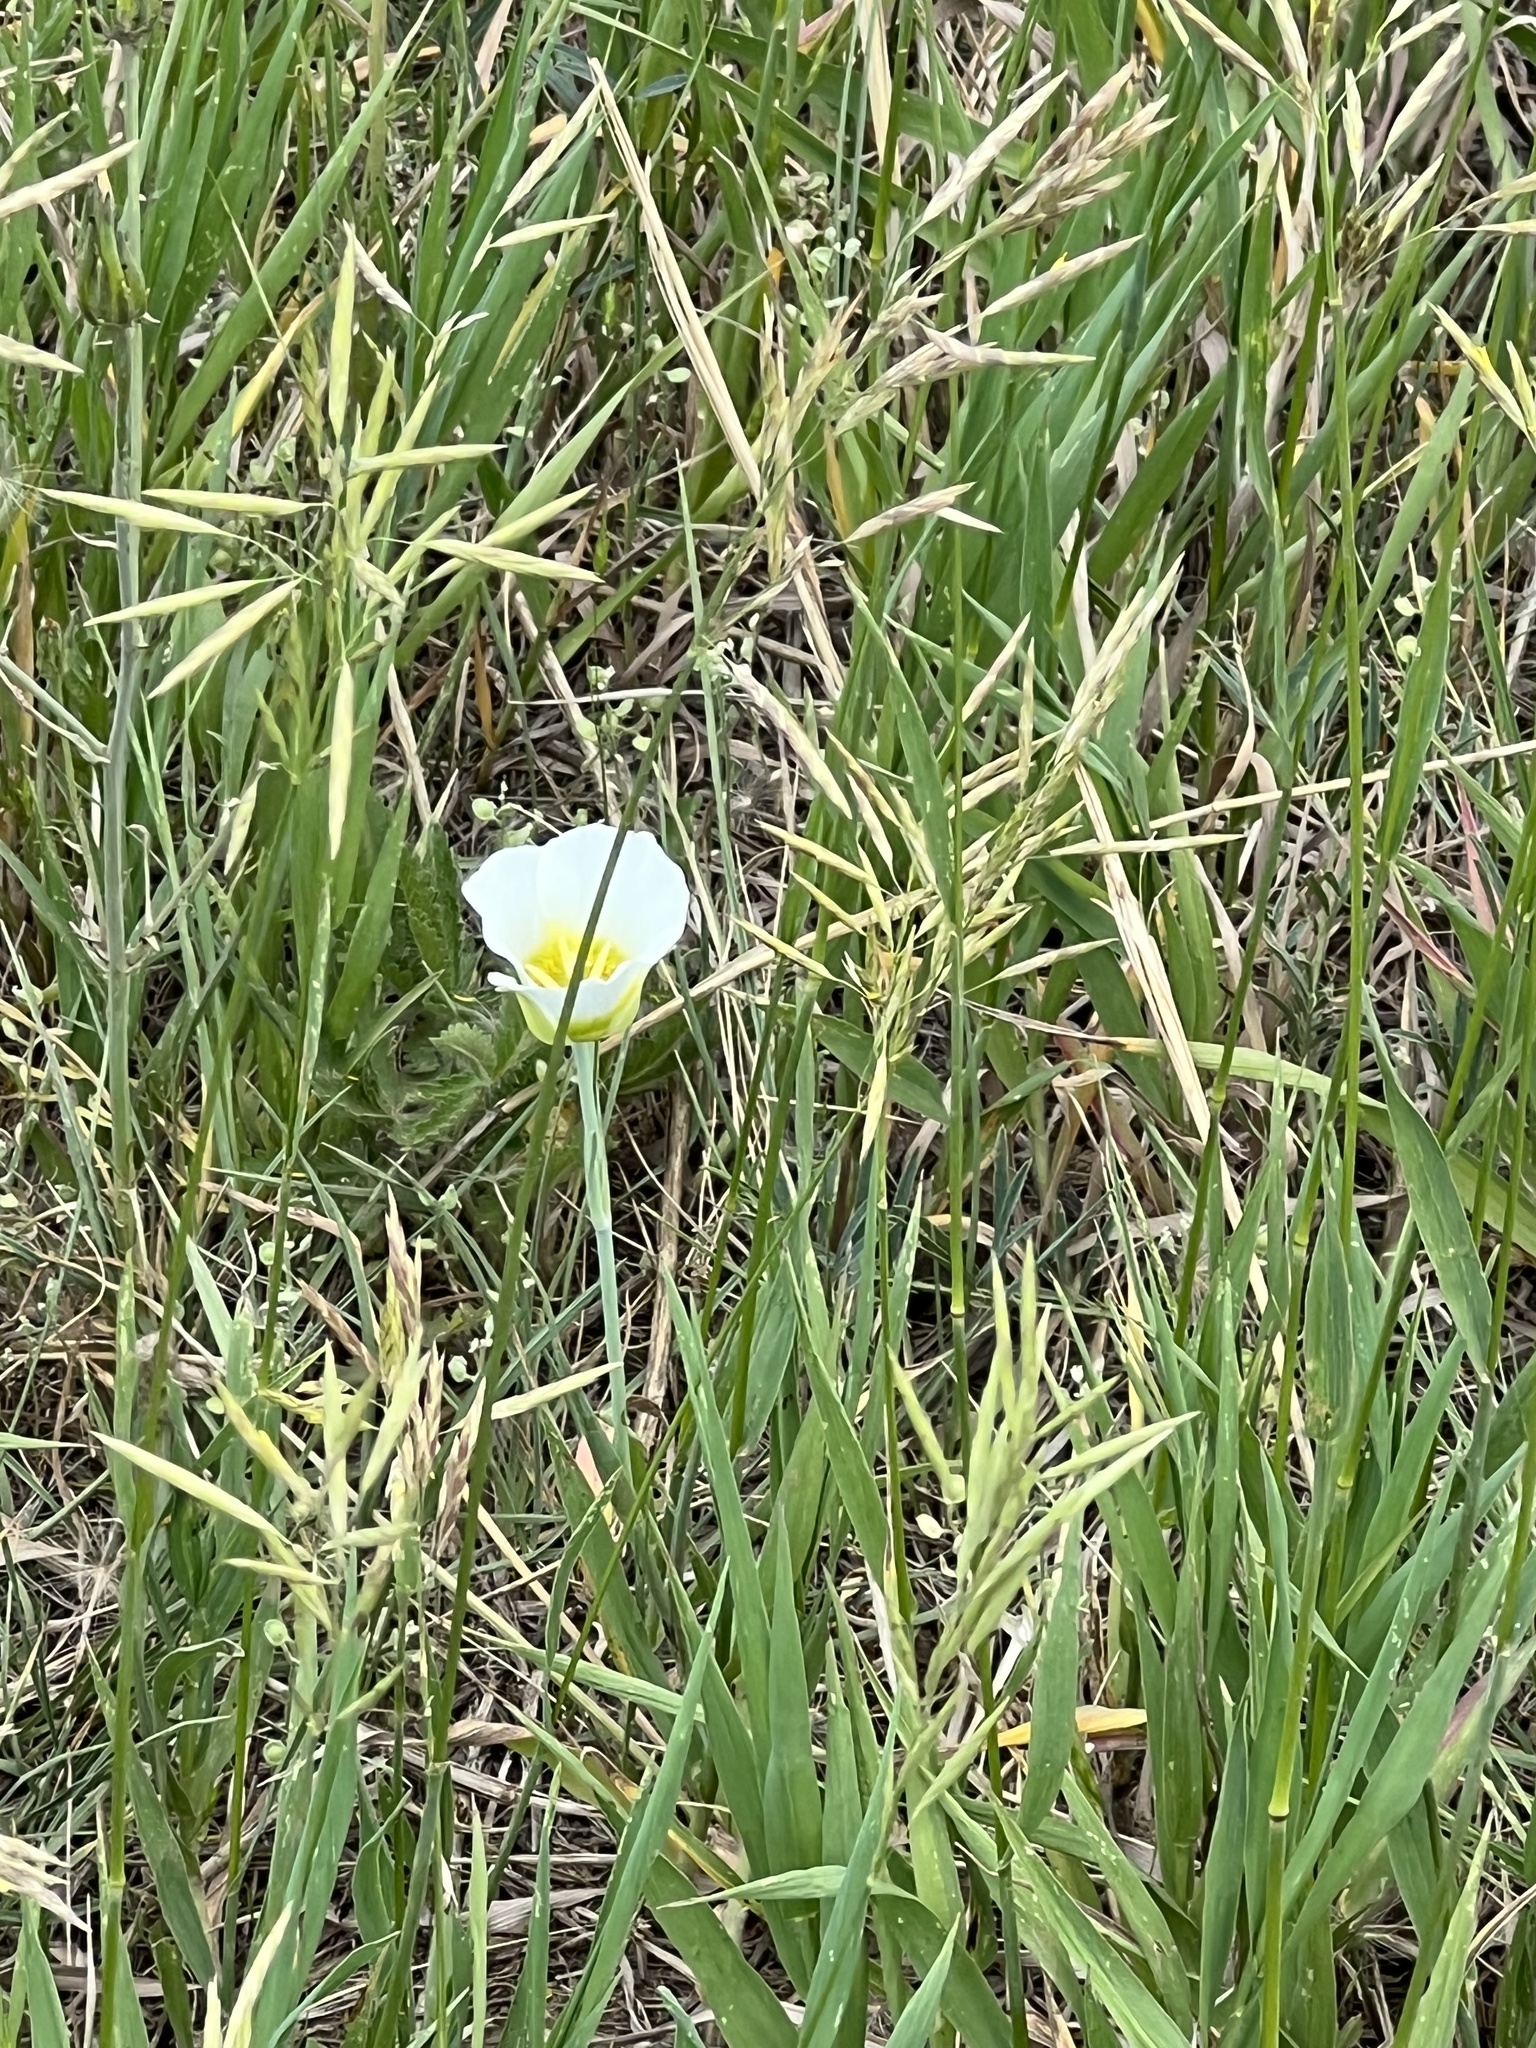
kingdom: Plantae
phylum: Tracheophyta
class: Liliopsida
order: Liliales
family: Liliaceae
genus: Calochortus
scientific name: Calochortus gunnisonii
